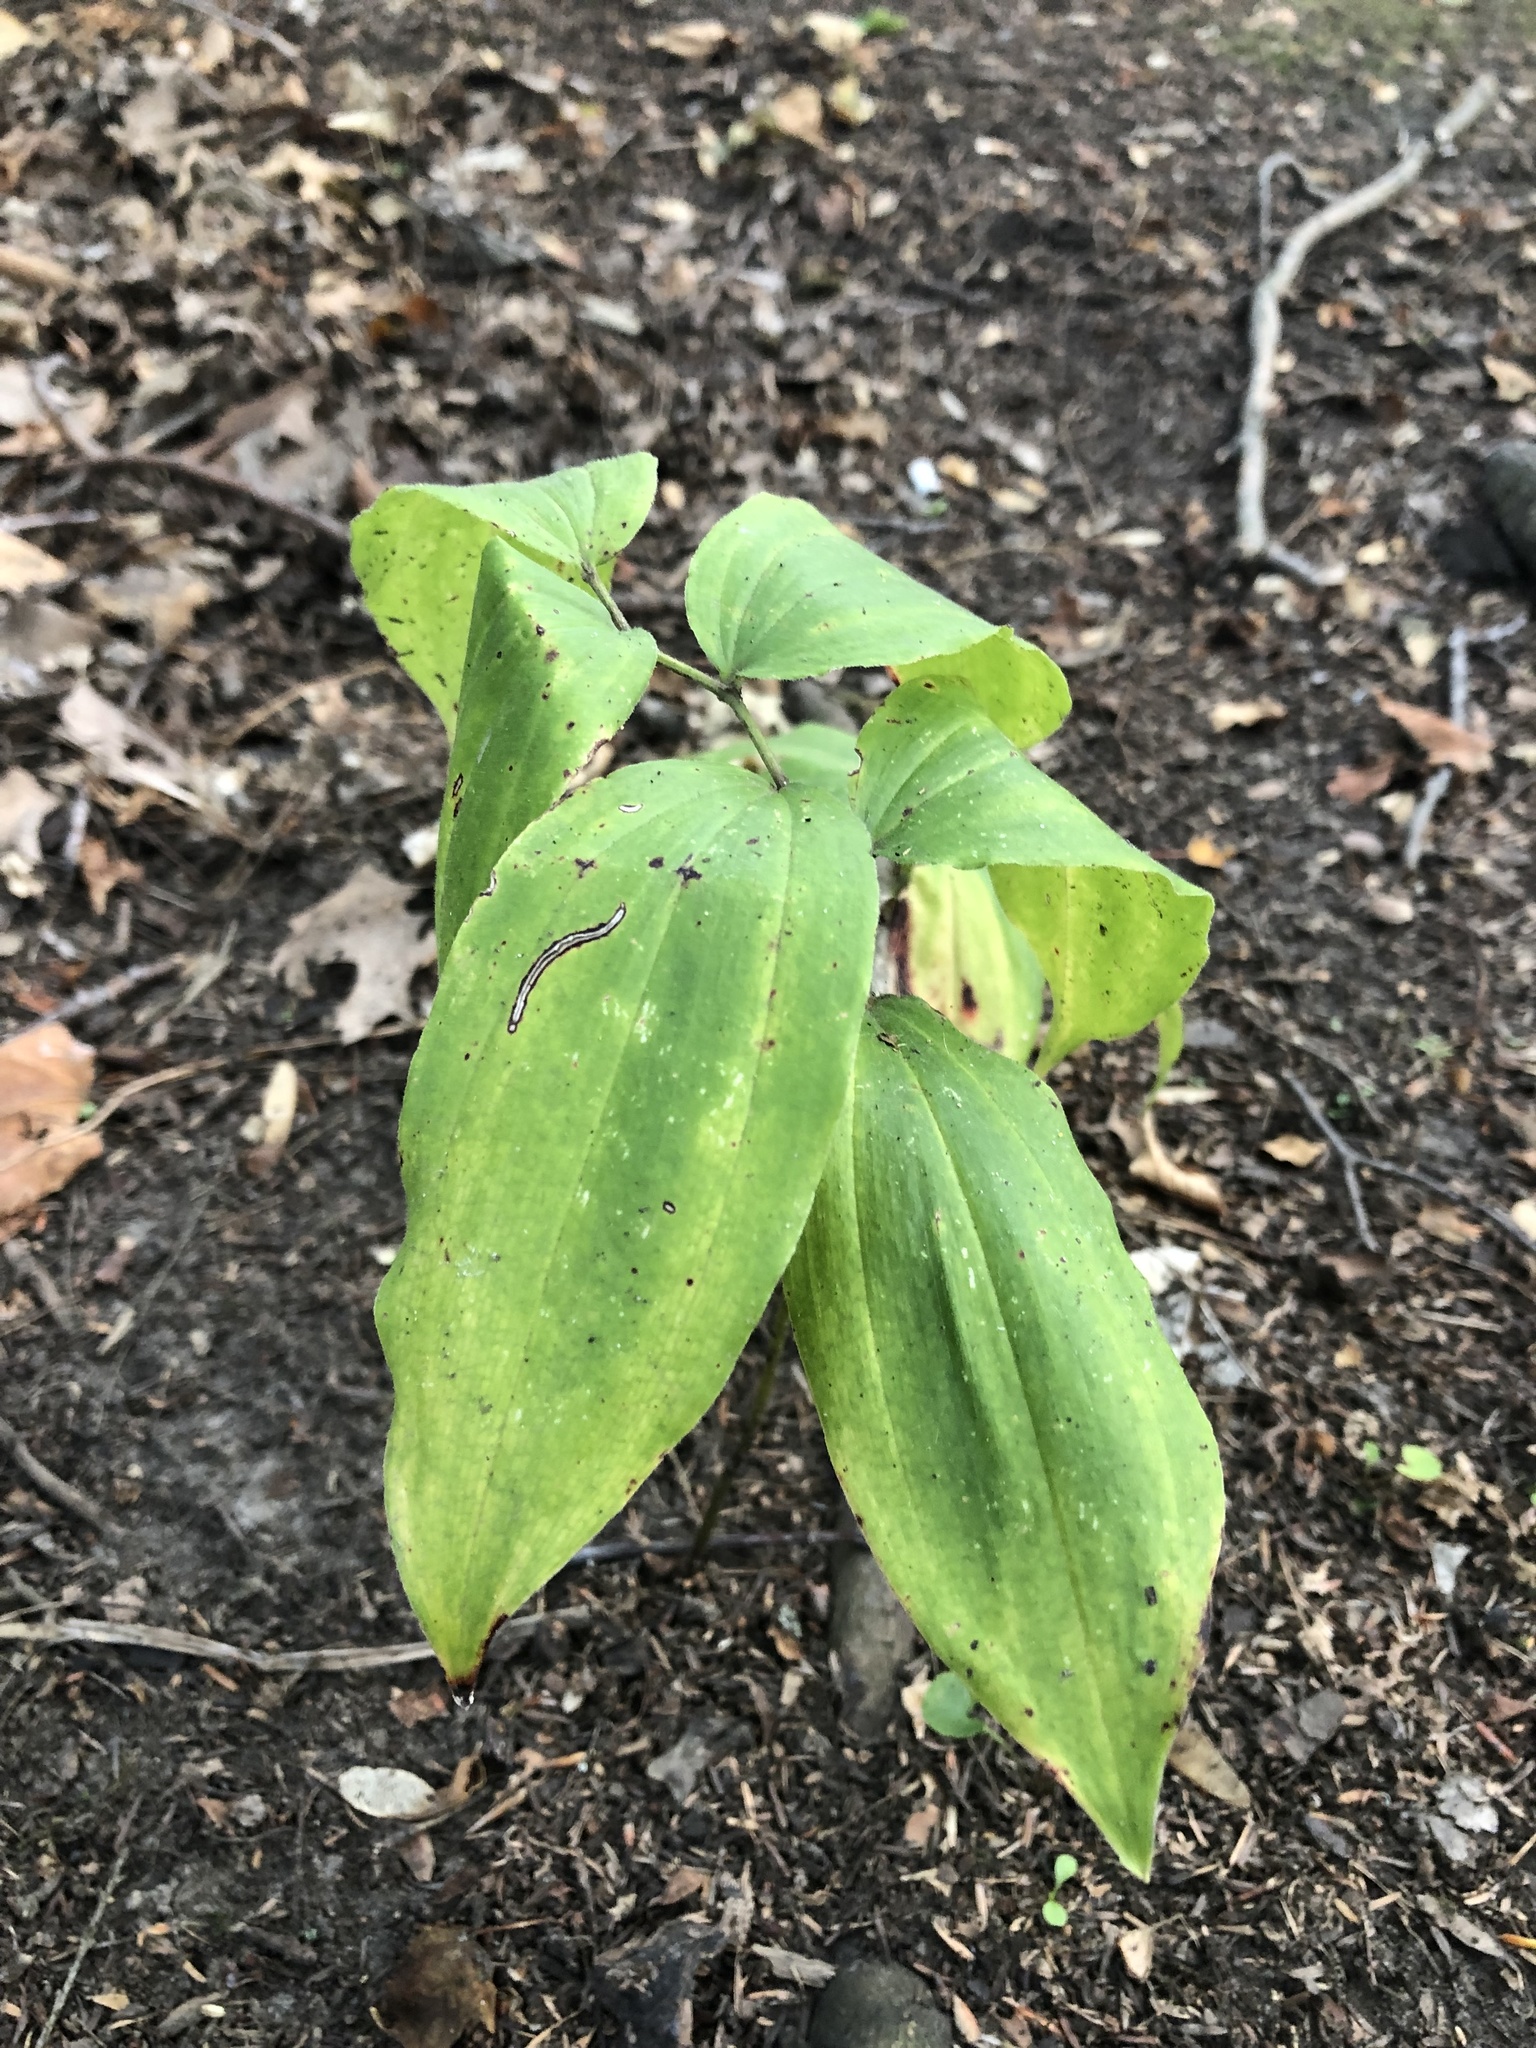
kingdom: Plantae
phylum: Tracheophyta
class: Liliopsida
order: Asparagales
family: Asparagaceae
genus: Maianthemum
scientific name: Maianthemum racemosum
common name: False spikenard
